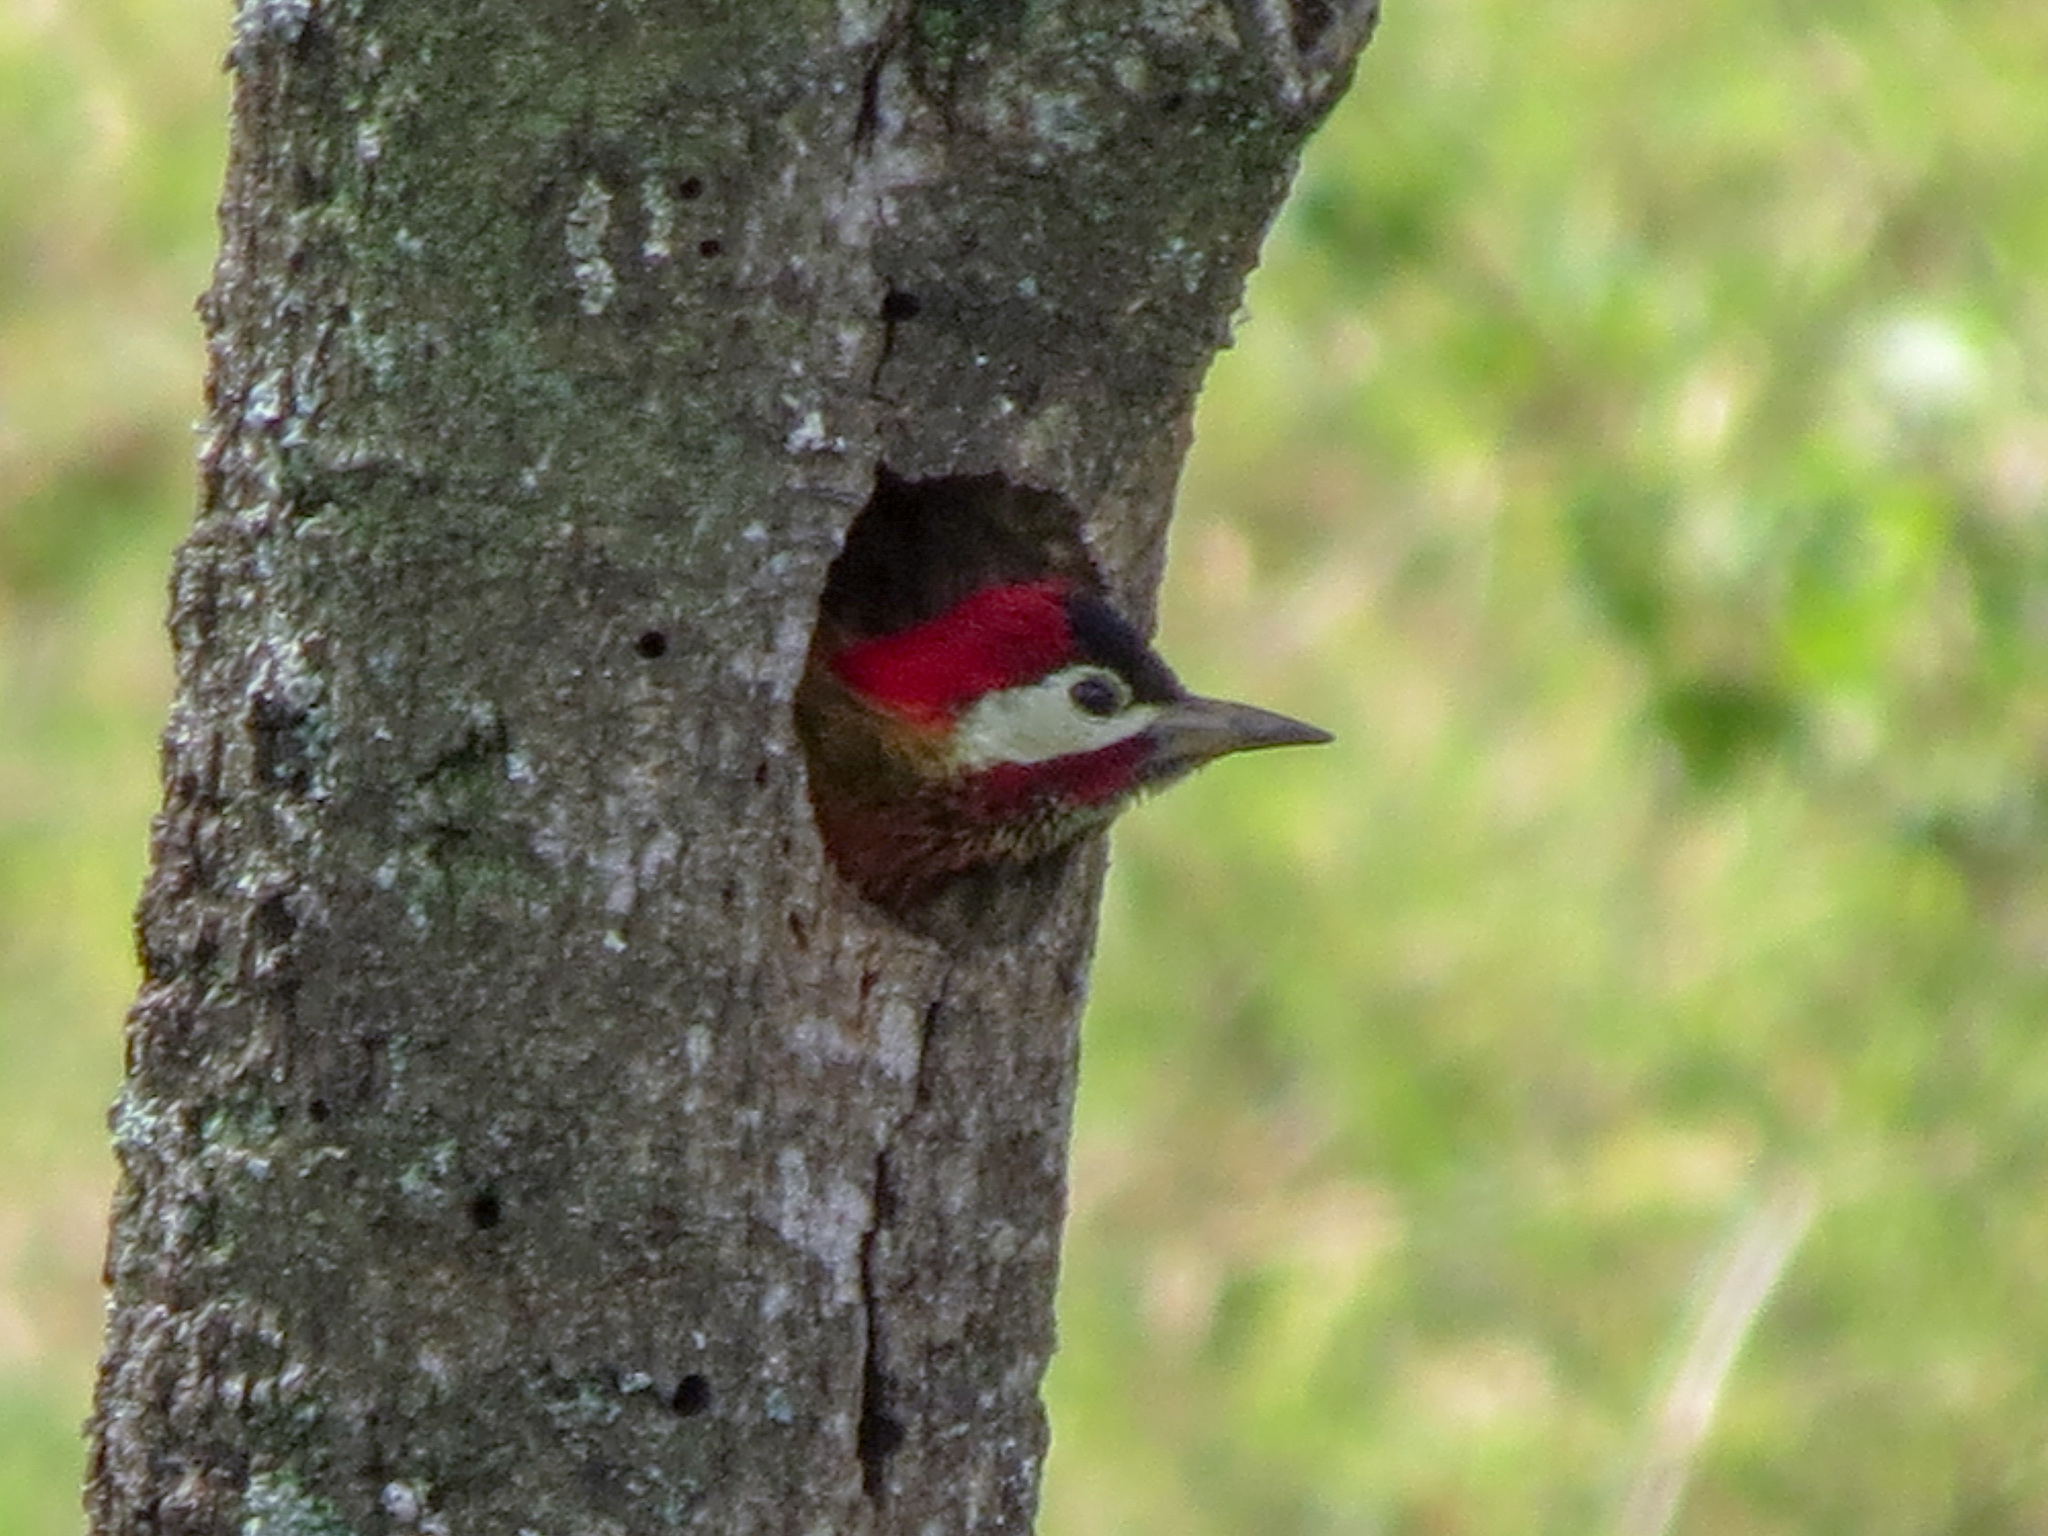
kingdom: Animalia
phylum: Chordata
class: Aves
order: Piciformes
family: Picidae
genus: Colaptes
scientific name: Colaptes punctigula
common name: Spot-breasted woodpecker
